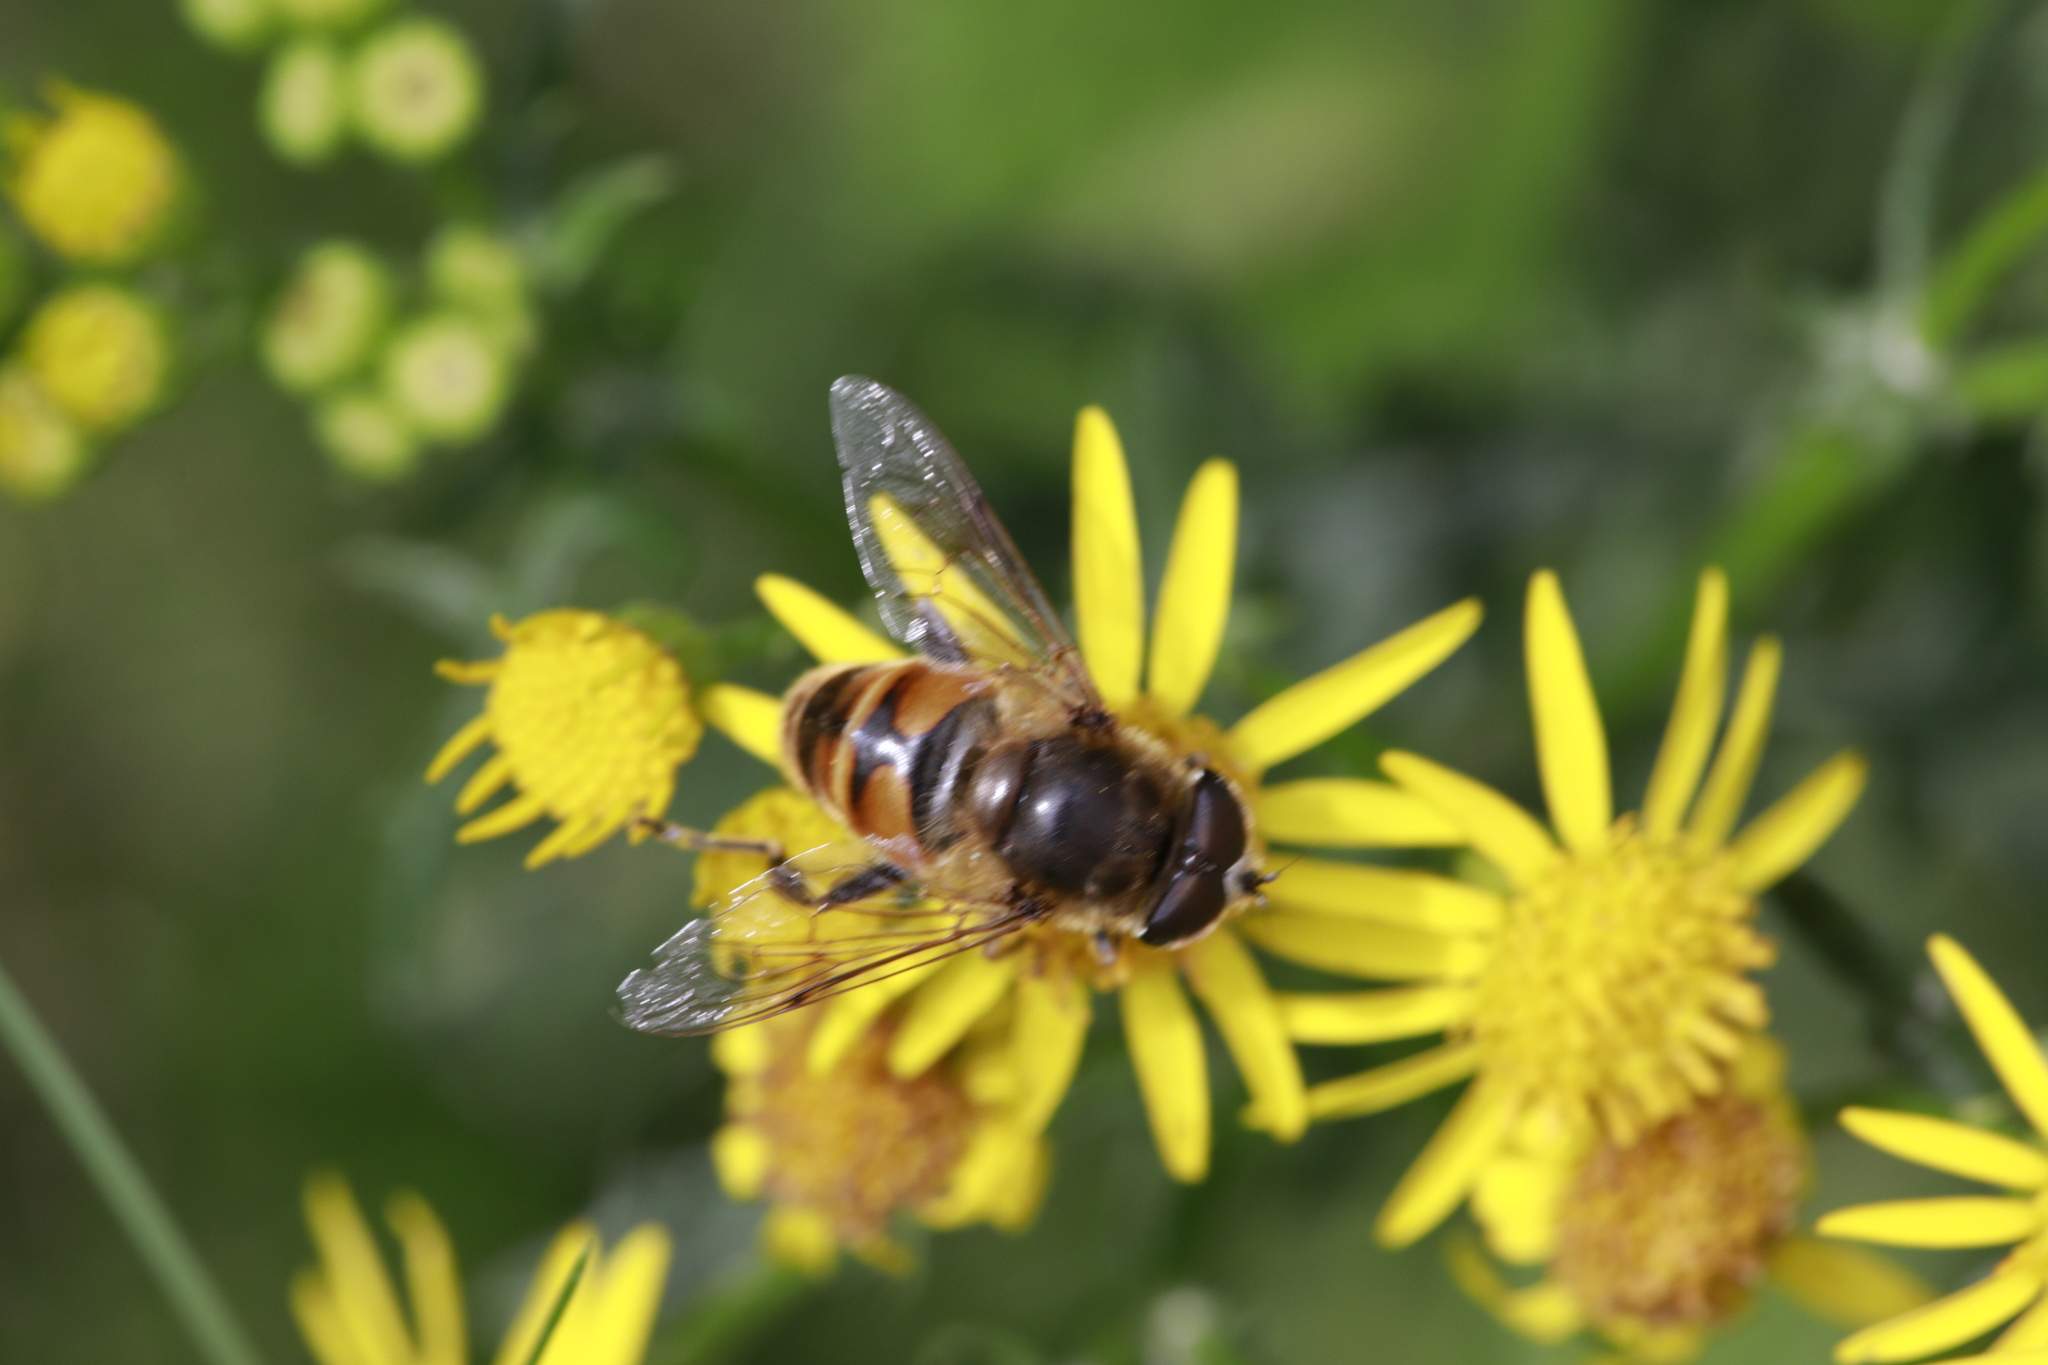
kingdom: Animalia
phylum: Arthropoda
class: Insecta
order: Diptera
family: Syrphidae
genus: Eristalis
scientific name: Eristalis tenax
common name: Drone fly
